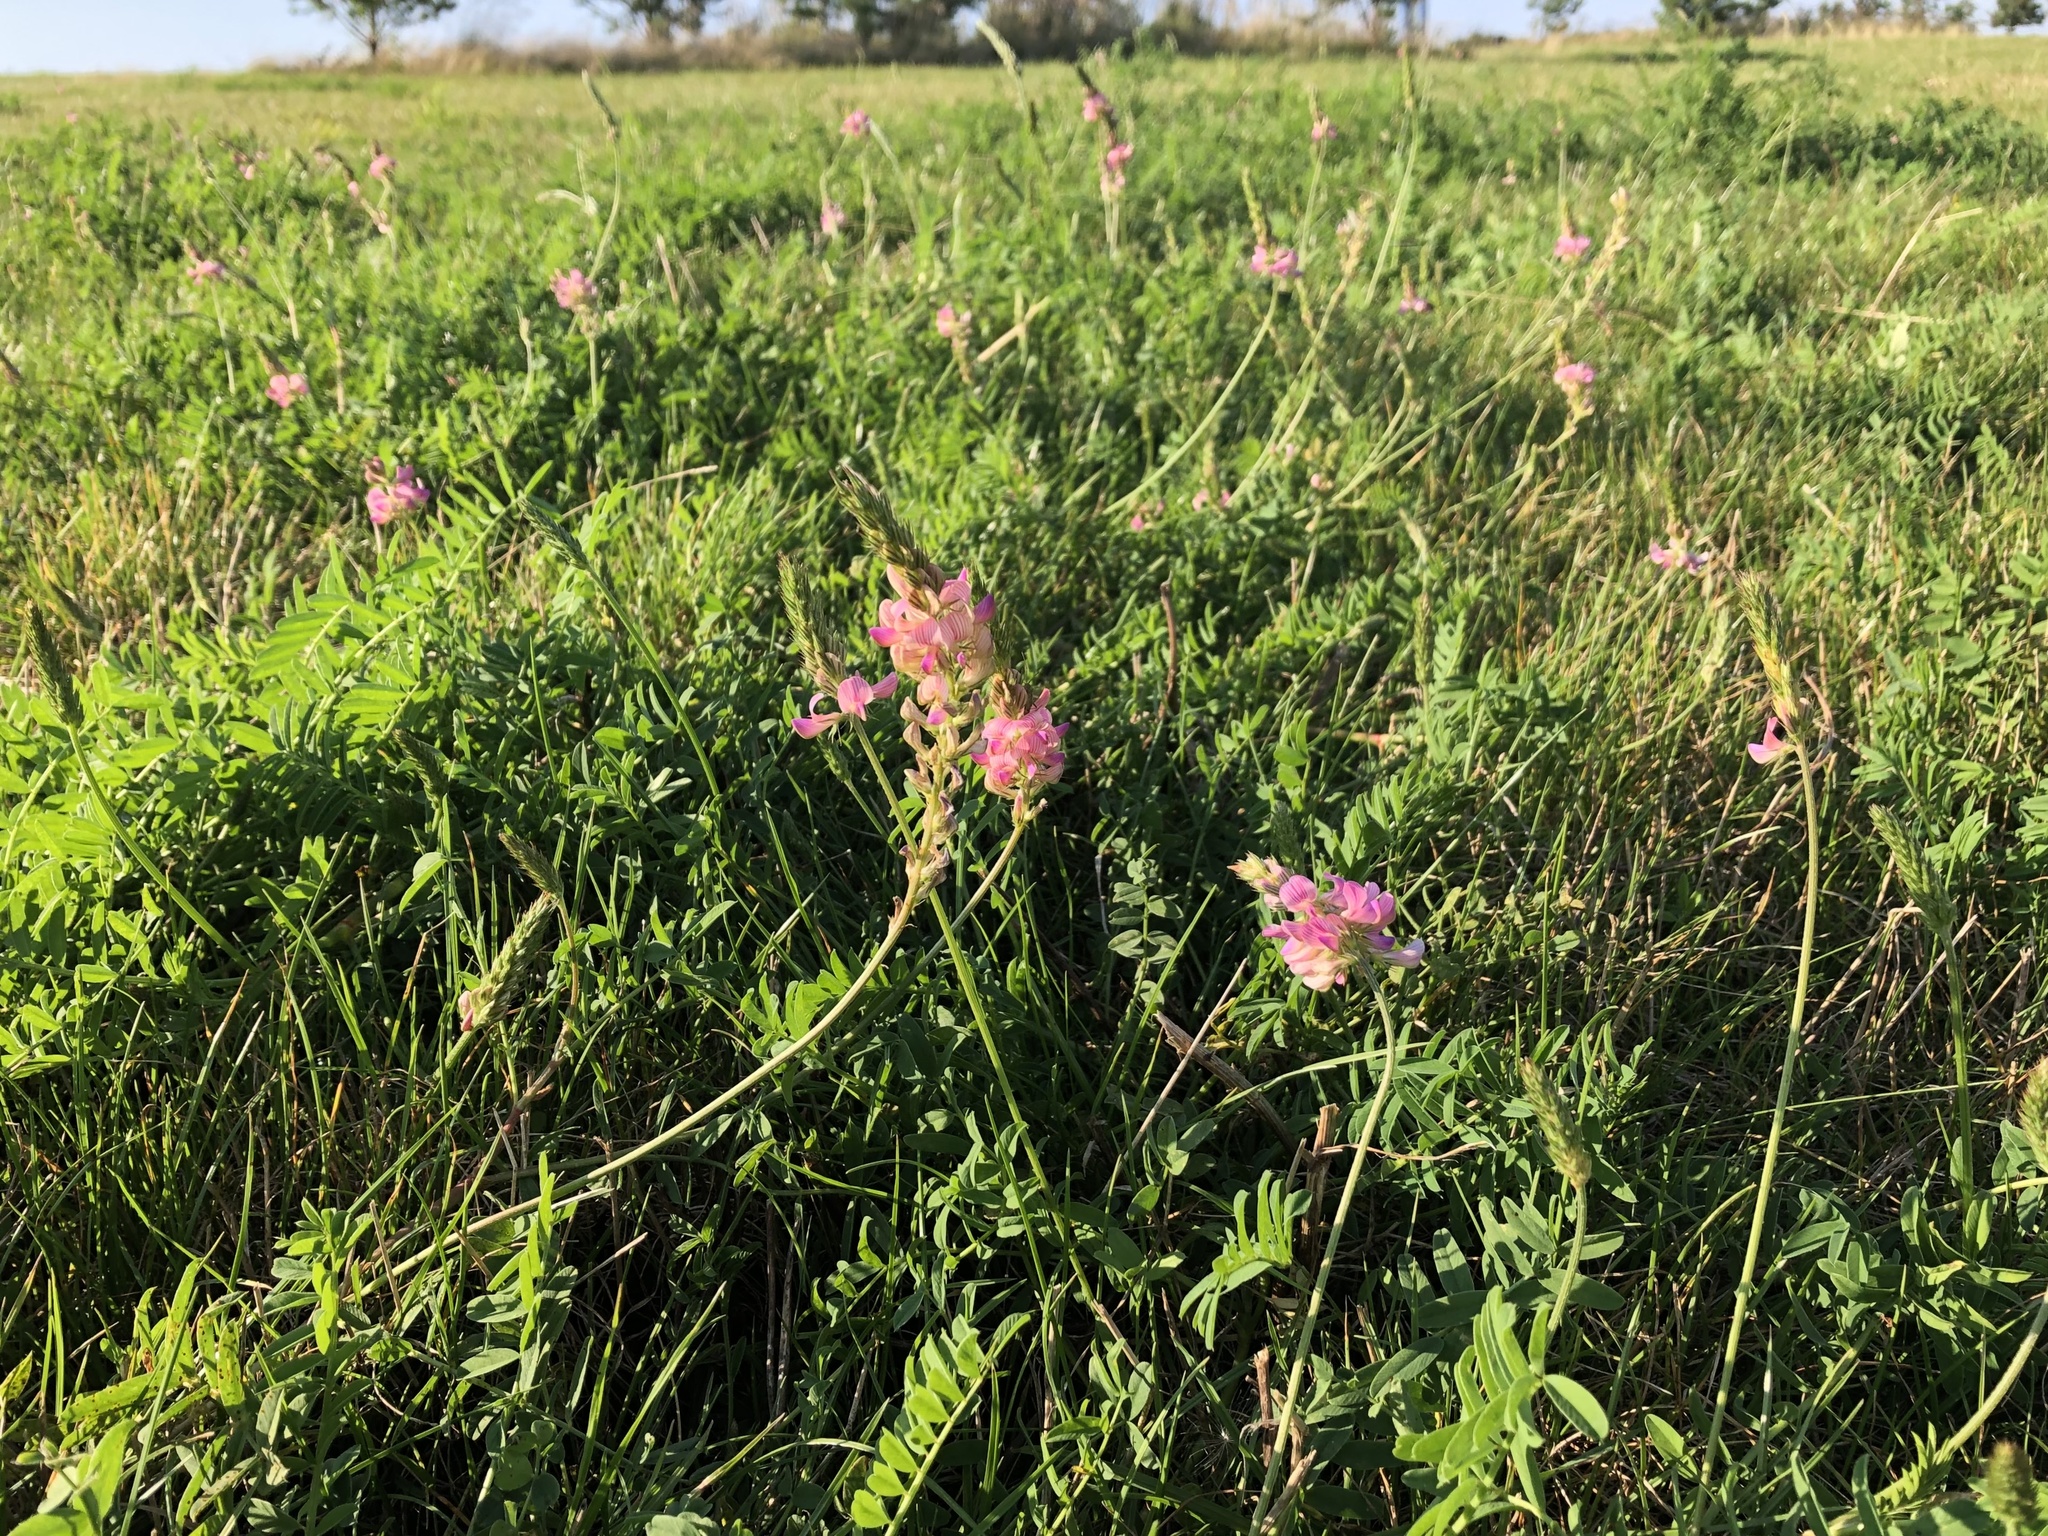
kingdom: Plantae
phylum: Tracheophyta
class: Magnoliopsida
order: Fabales
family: Fabaceae
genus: Onobrychis
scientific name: Onobrychis viciifolia
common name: Sainfoin
